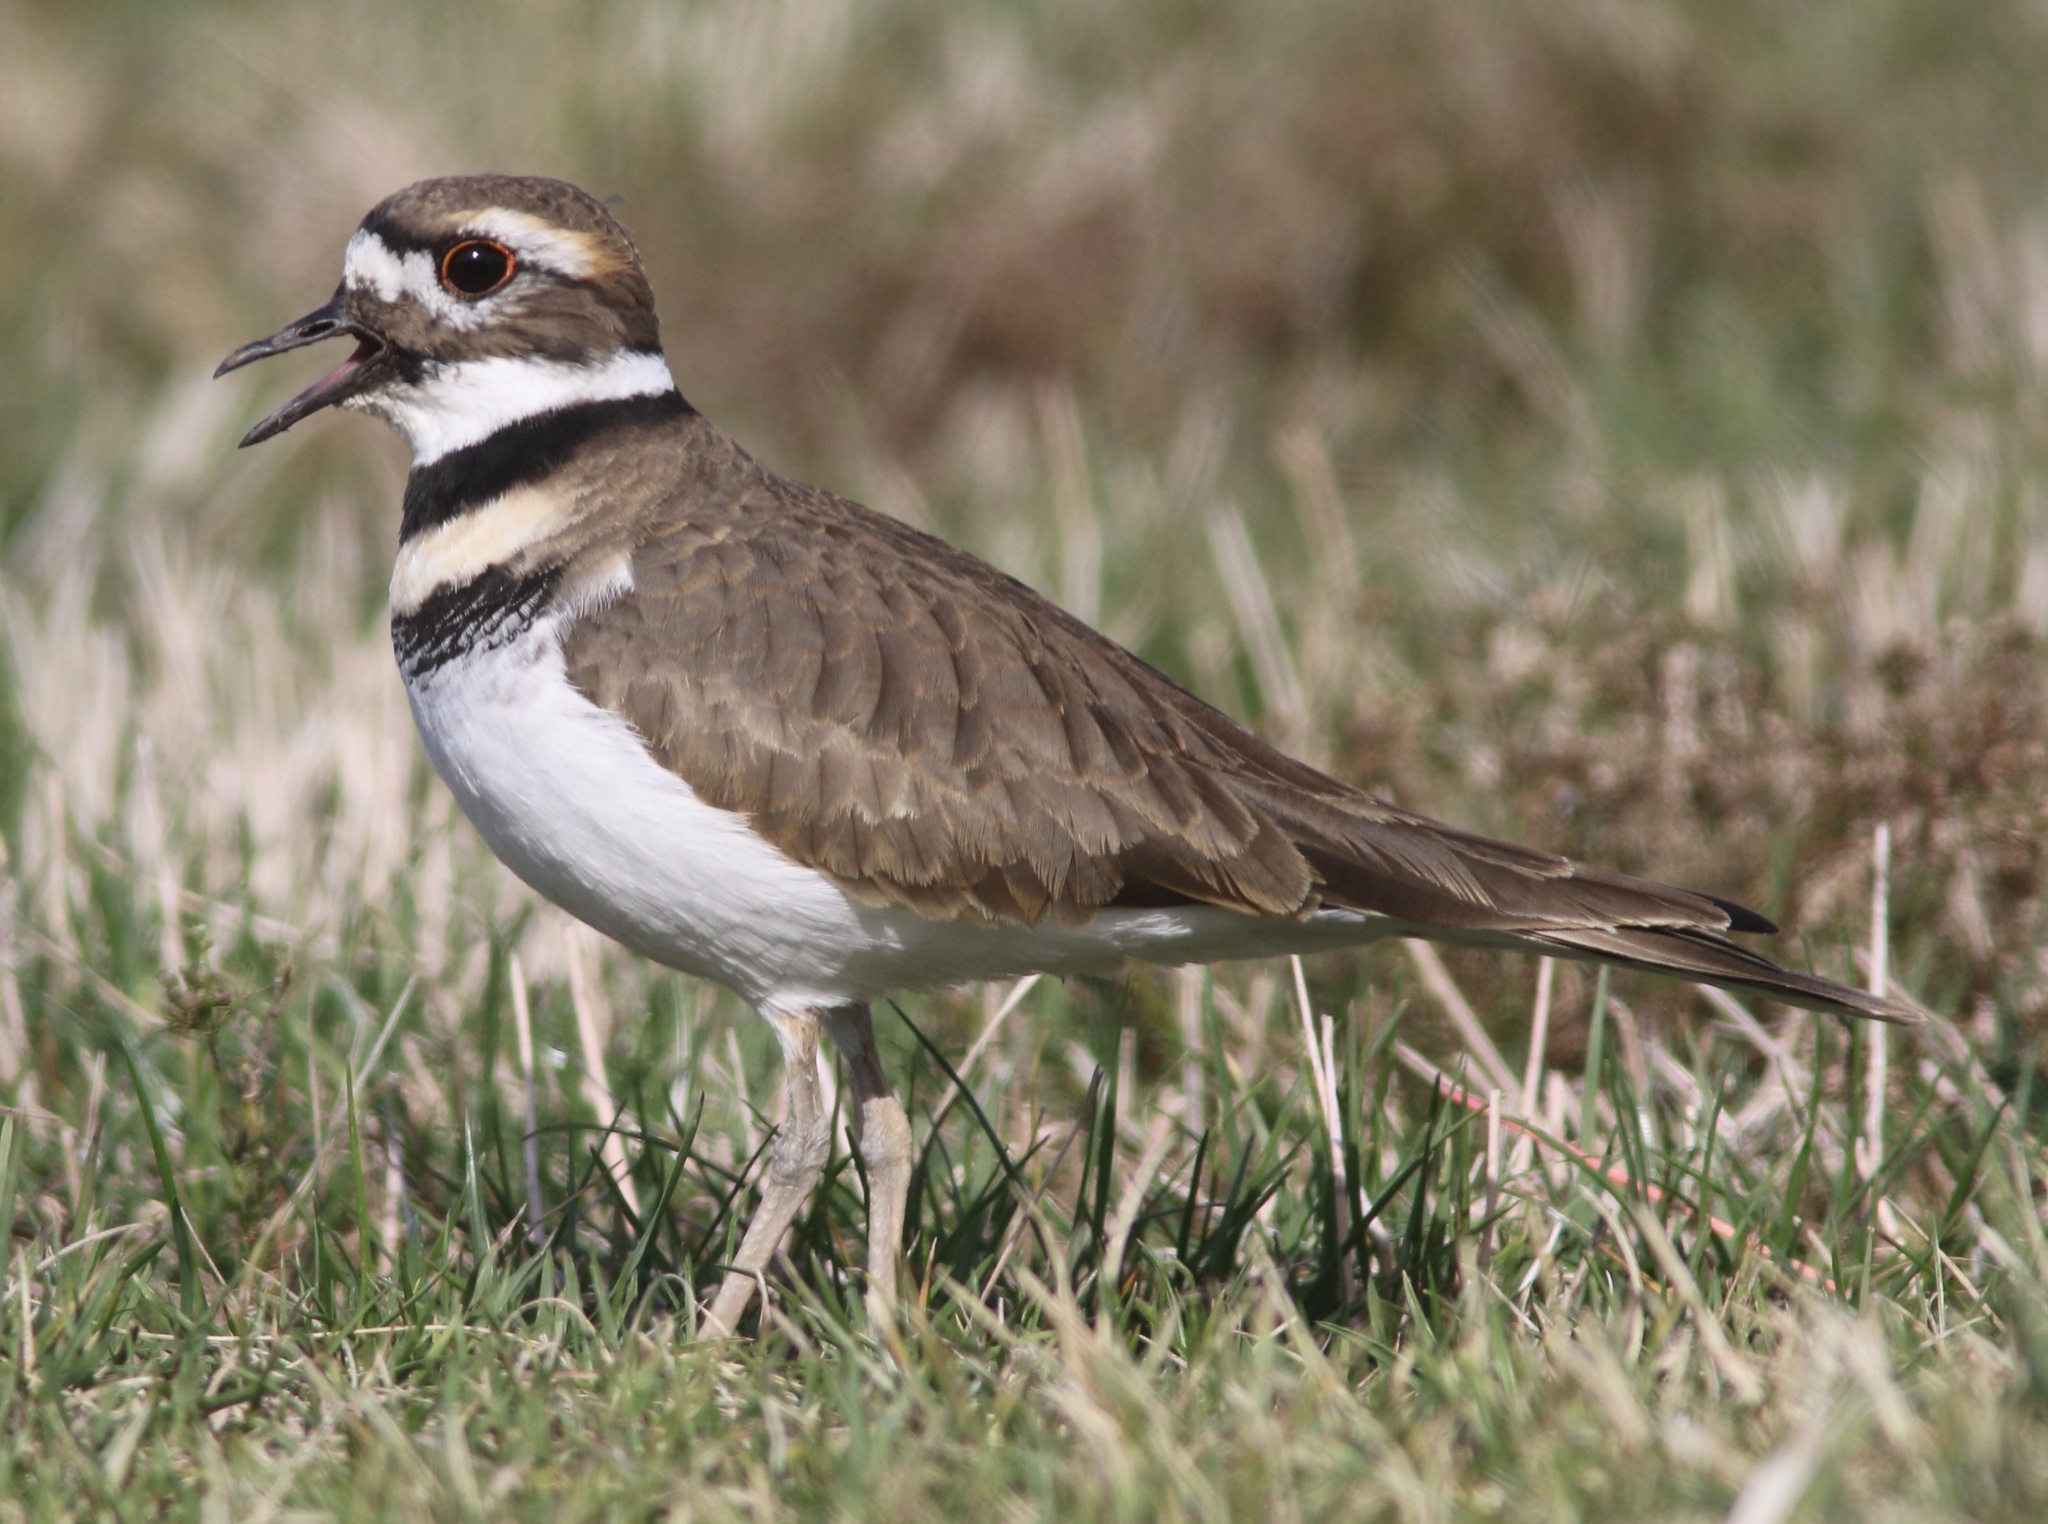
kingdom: Animalia
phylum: Chordata
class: Aves
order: Charadriiformes
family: Charadriidae
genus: Charadrius
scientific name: Charadrius vociferus
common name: Killdeer
